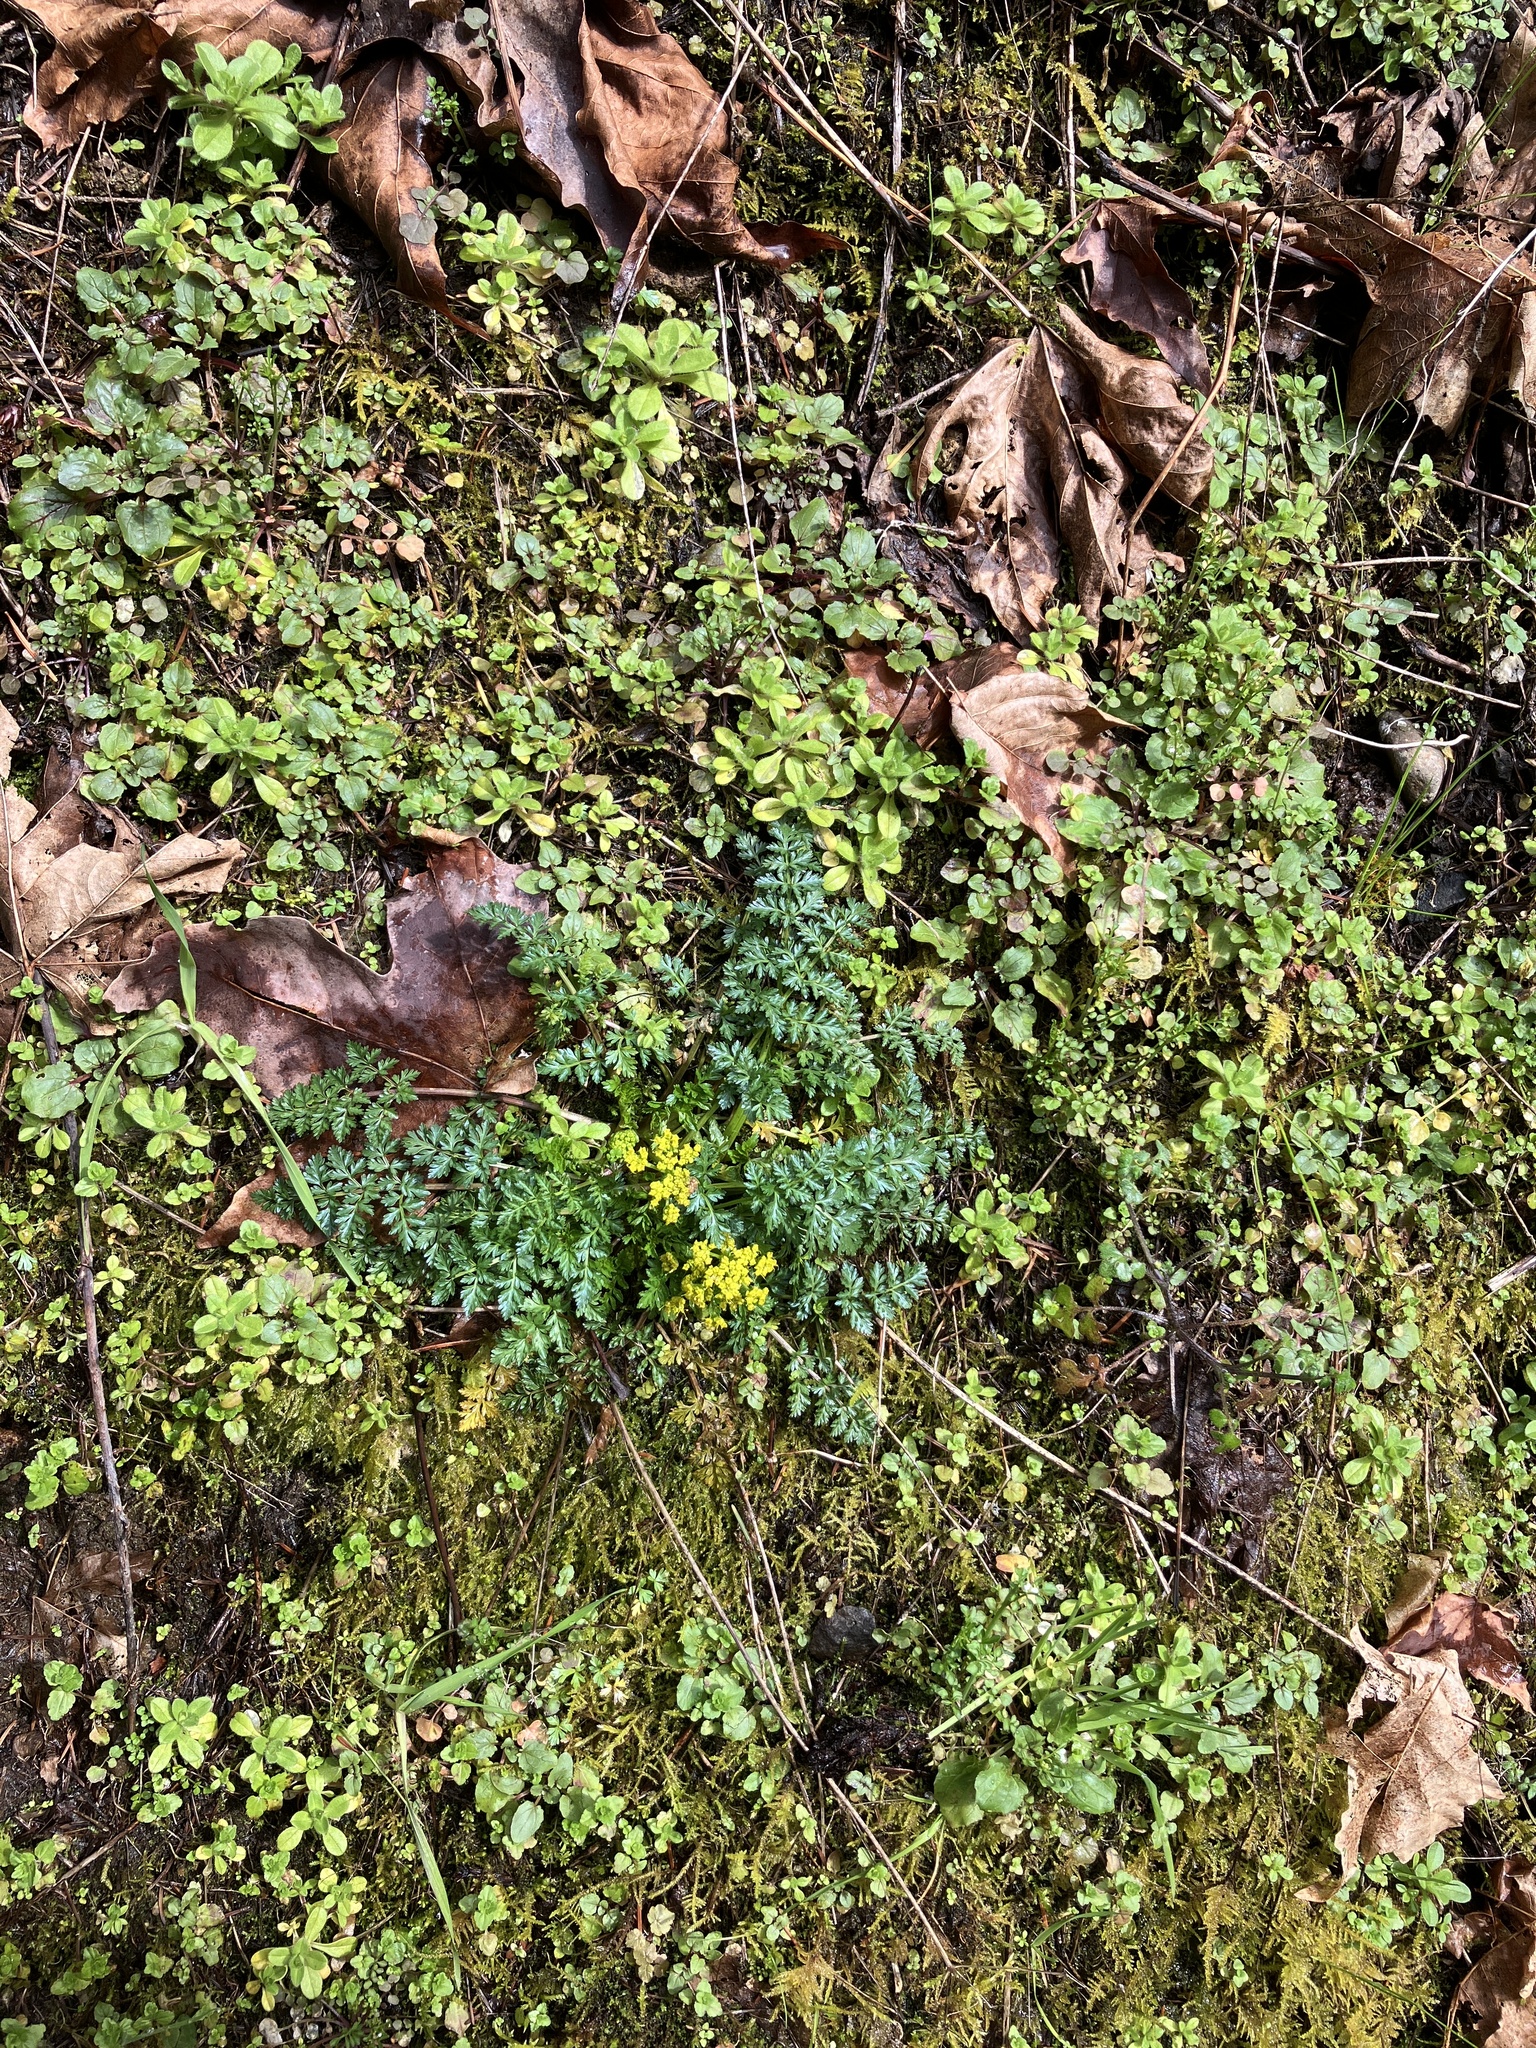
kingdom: Plantae
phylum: Tracheophyta
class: Magnoliopsida
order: Apiales
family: Apiaceae
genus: Lomatium
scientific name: Lomatium hallii
